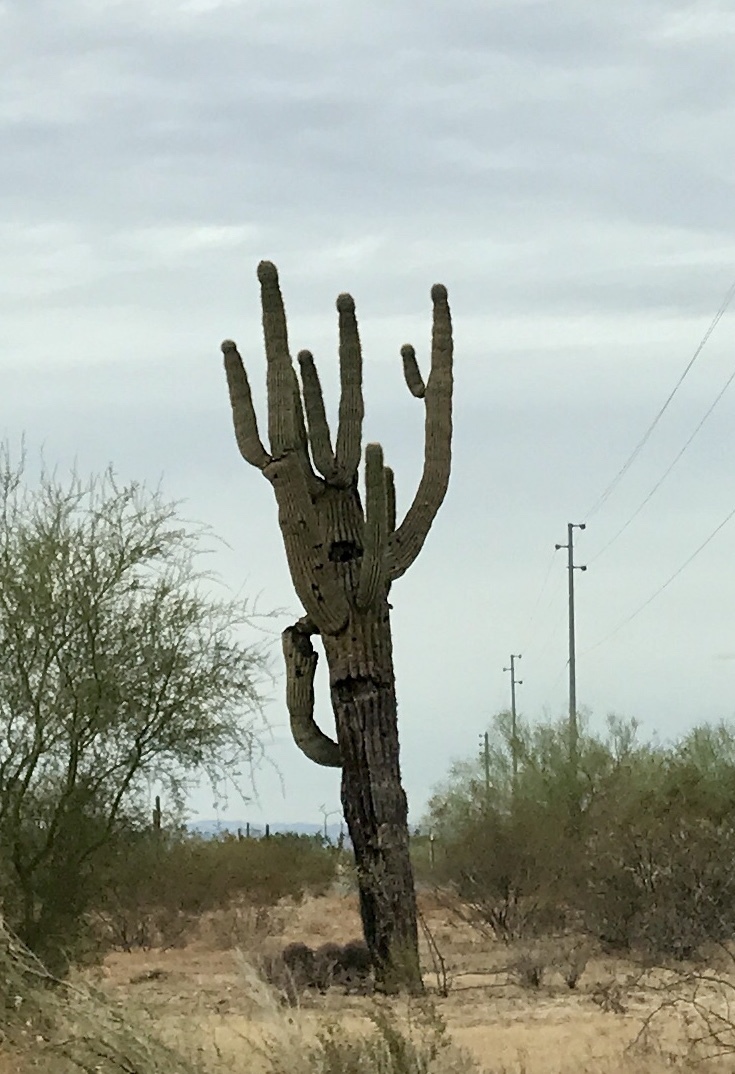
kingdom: Plantae
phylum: Tracheophyta
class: Magnoliopsida
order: Caryophyllales
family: Cactaceae
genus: Carnegiea
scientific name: Carnegiea gigantea
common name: Saguaro
